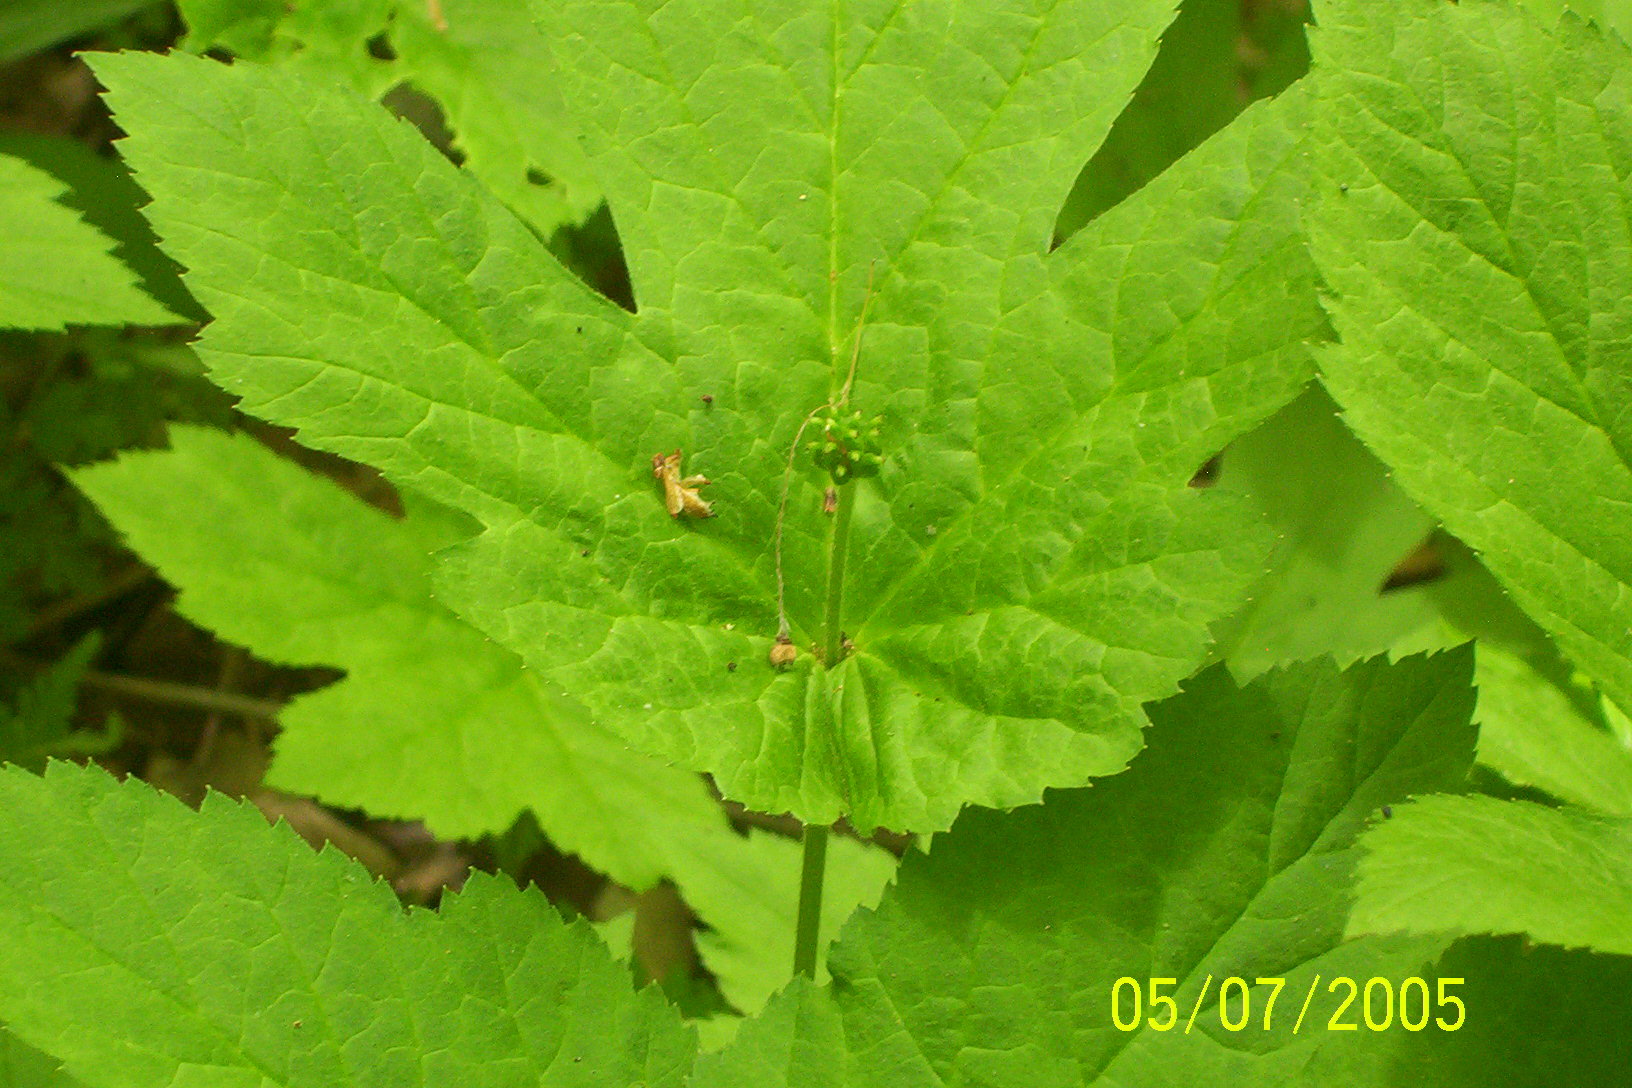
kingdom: Plantae
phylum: Tracheophyta
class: Magnoliopsida
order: Ranunculales
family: Ranunculaceae
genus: Hydrastis
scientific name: Hydrastis canadensis
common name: Goldenseal
